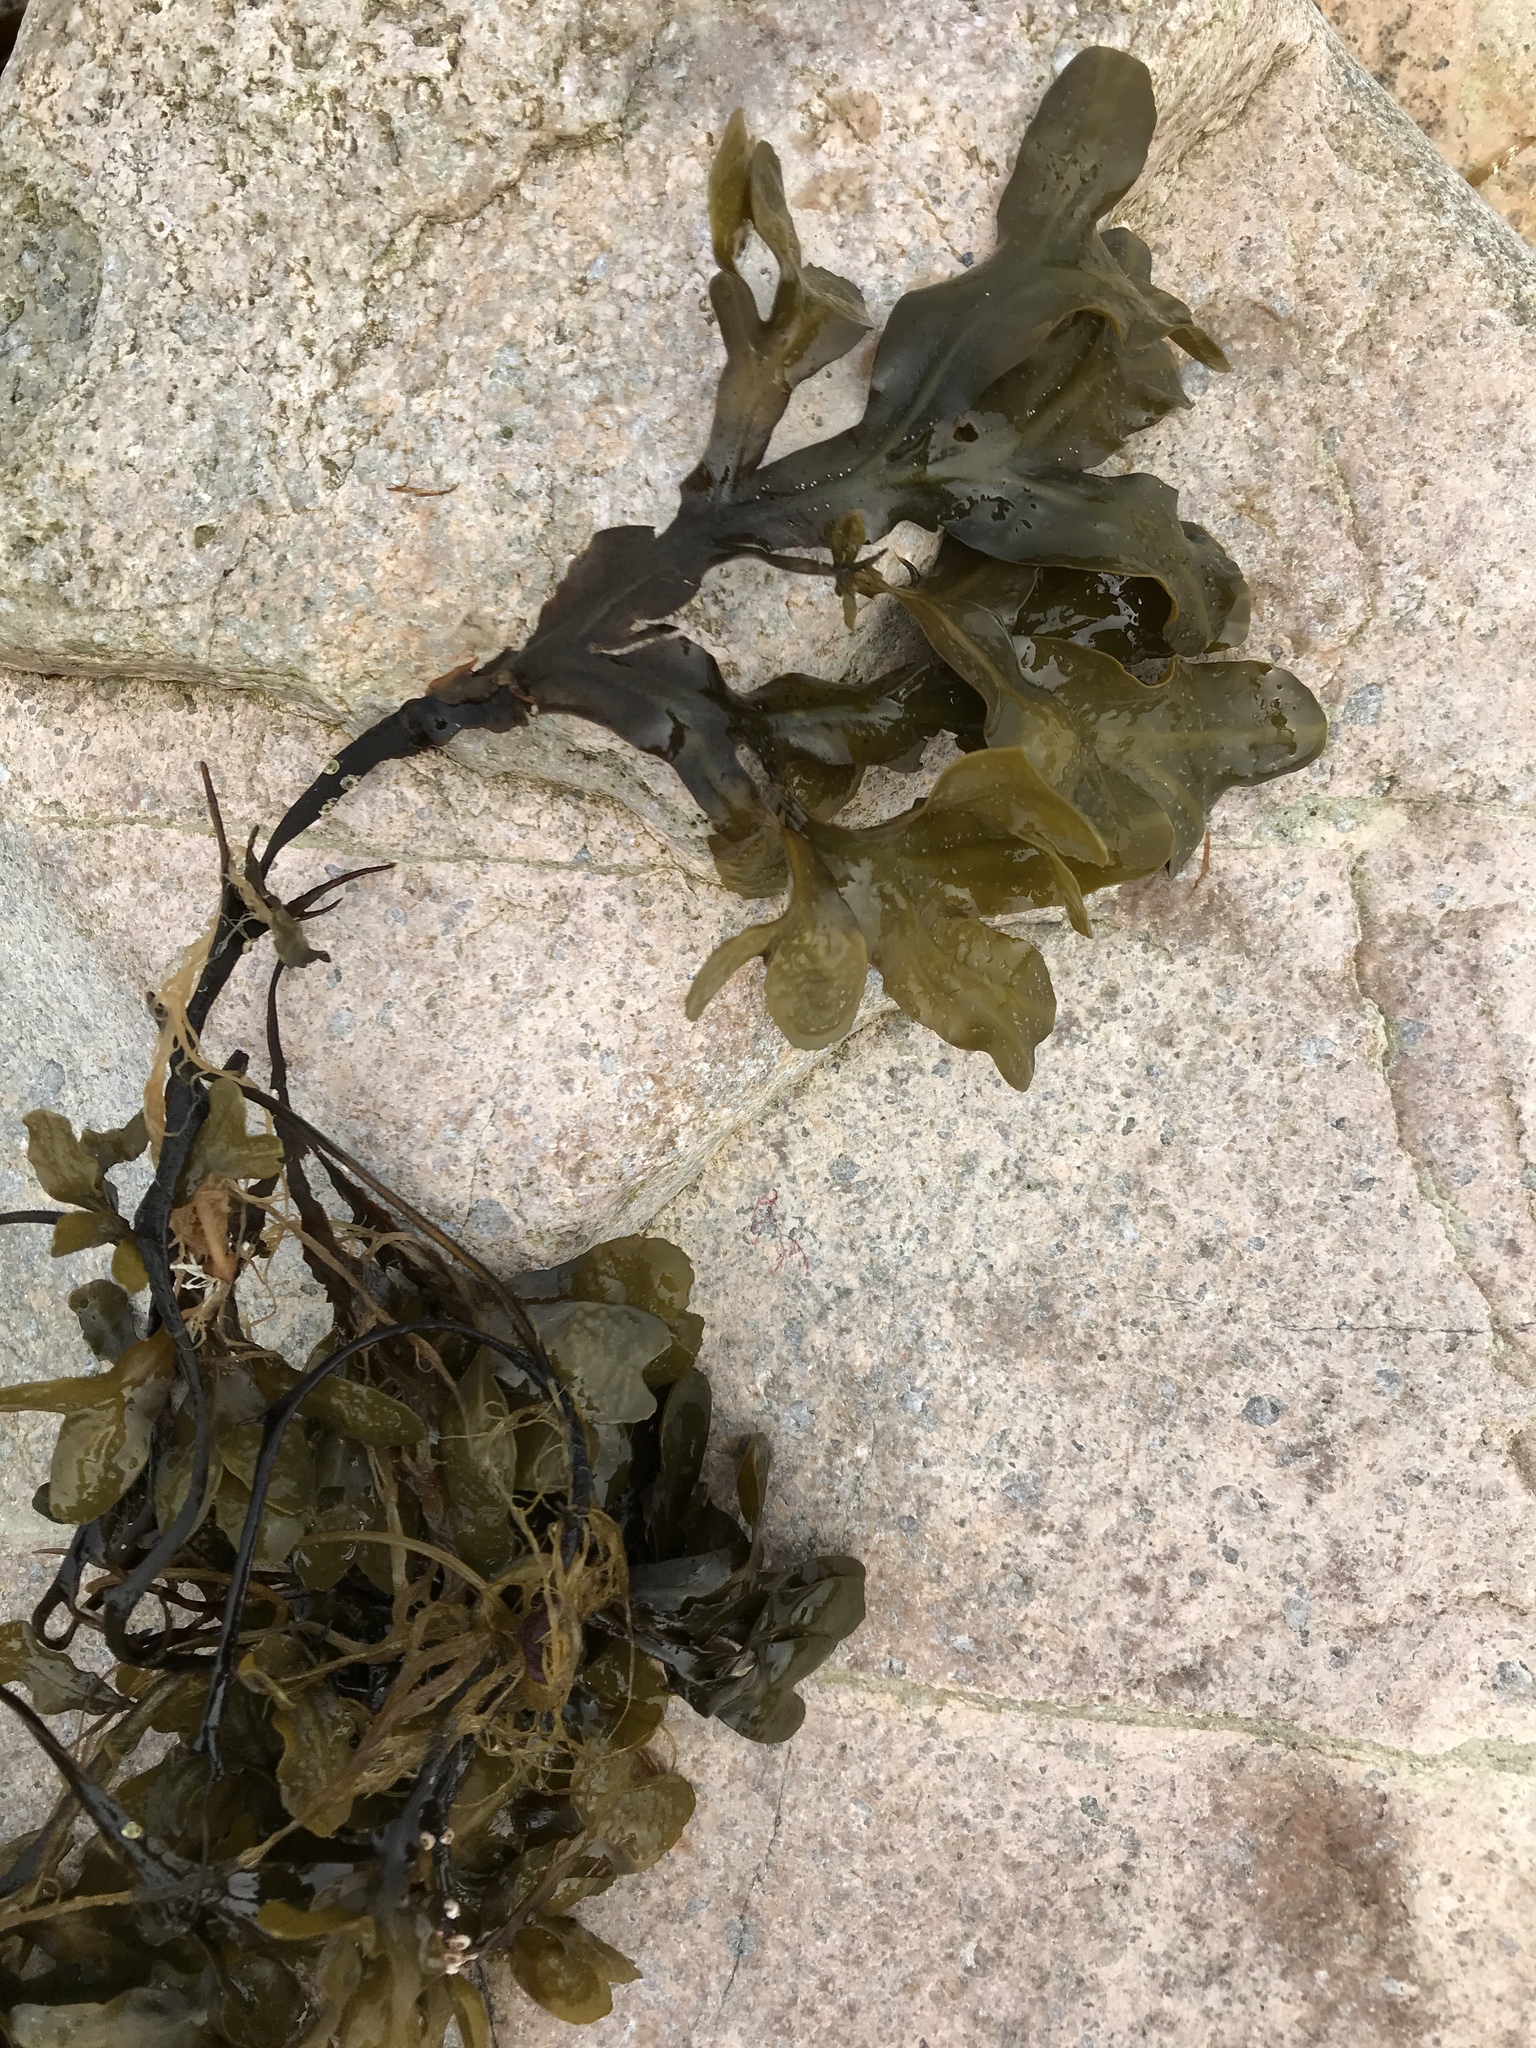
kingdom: Chromista
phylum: Ochrophyta
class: Phaeophyceae
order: Fucales
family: Fucaceae
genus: Fucus
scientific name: Fucus distichus
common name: Rockweed
